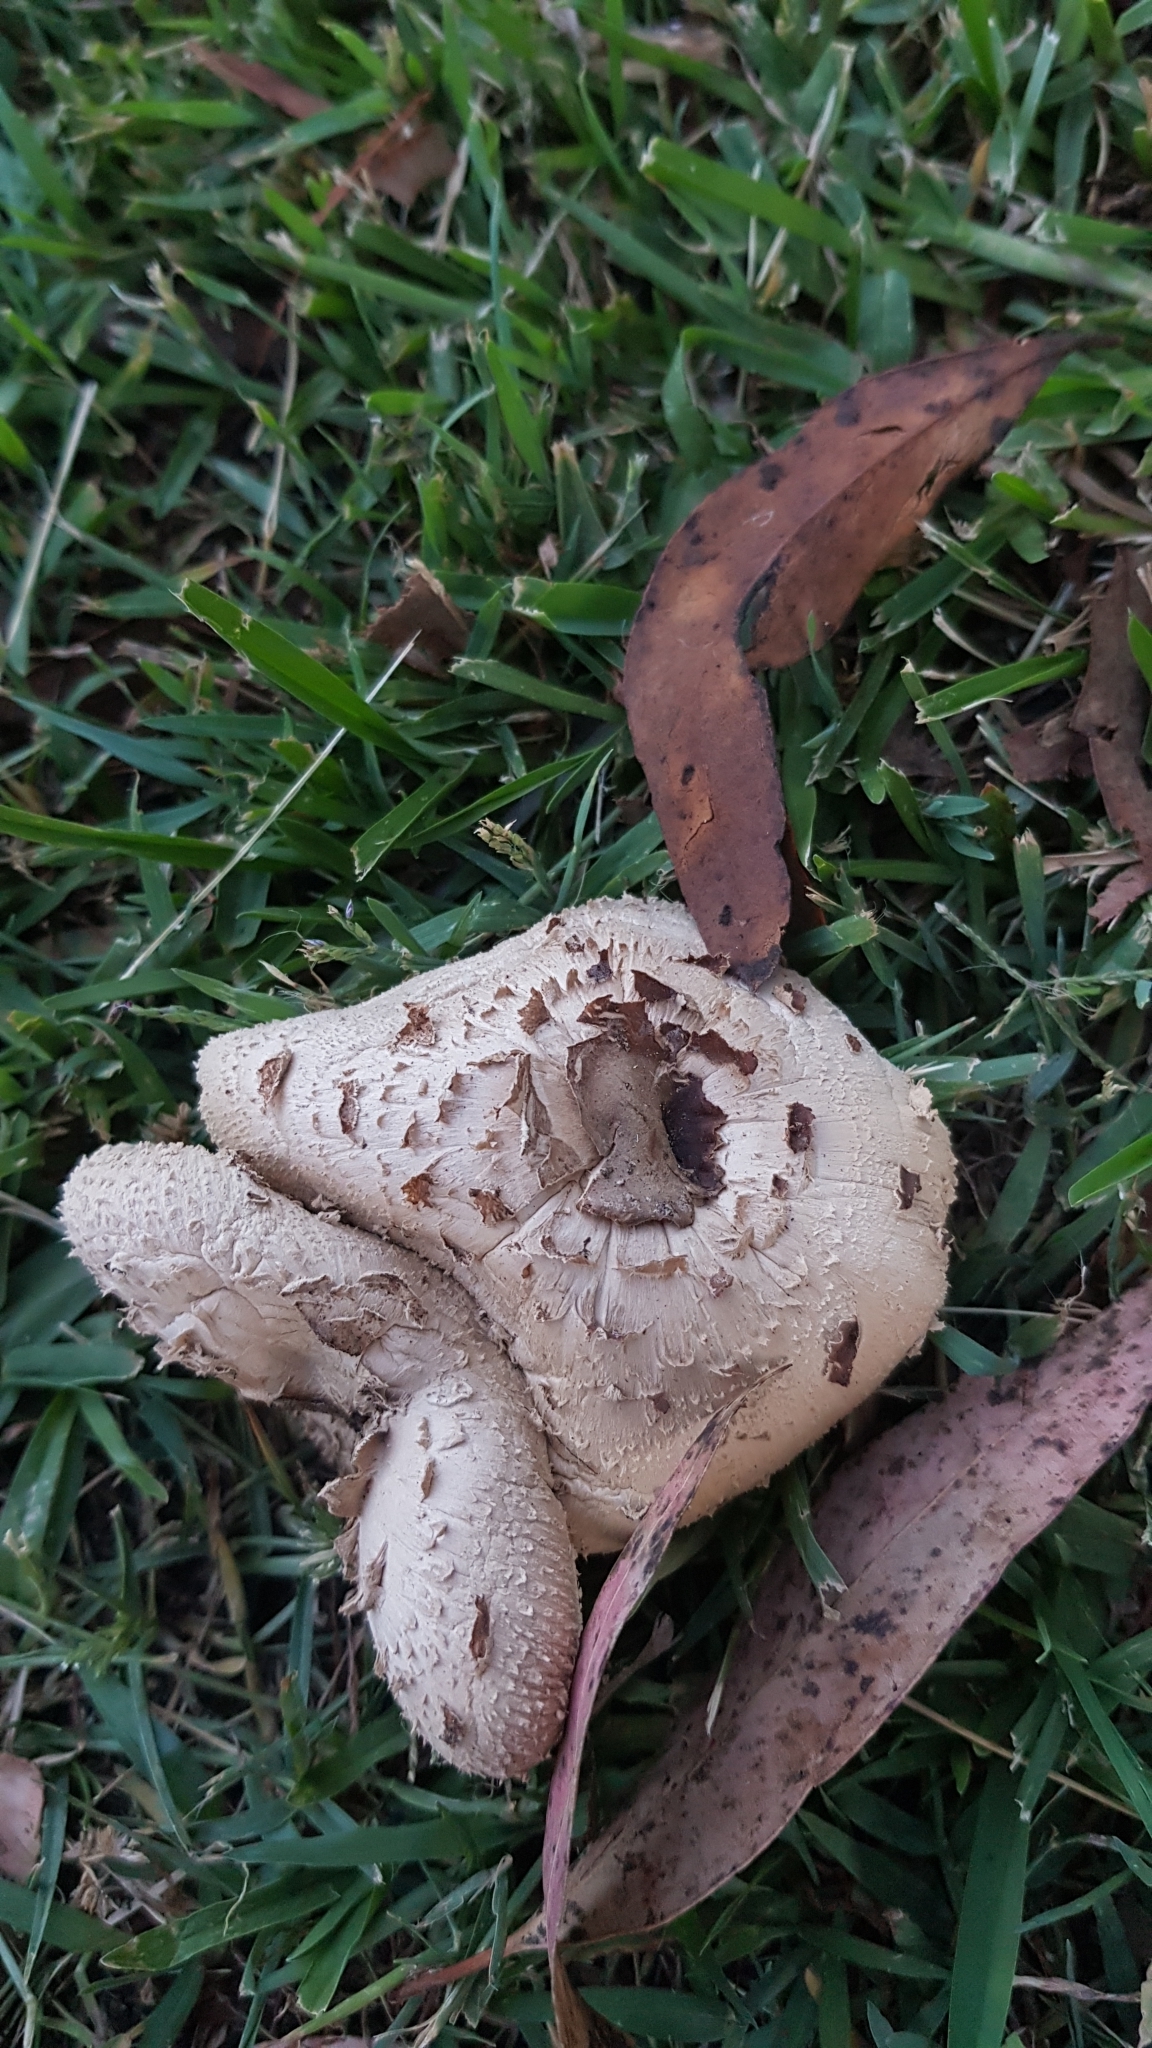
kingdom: Fungi
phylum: Basidiomycota
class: Agaricomycetes
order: Agaricales
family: Agaricaceae
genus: Chlorophyllum
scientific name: Chlorophyllum molybdites
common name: False parasol
